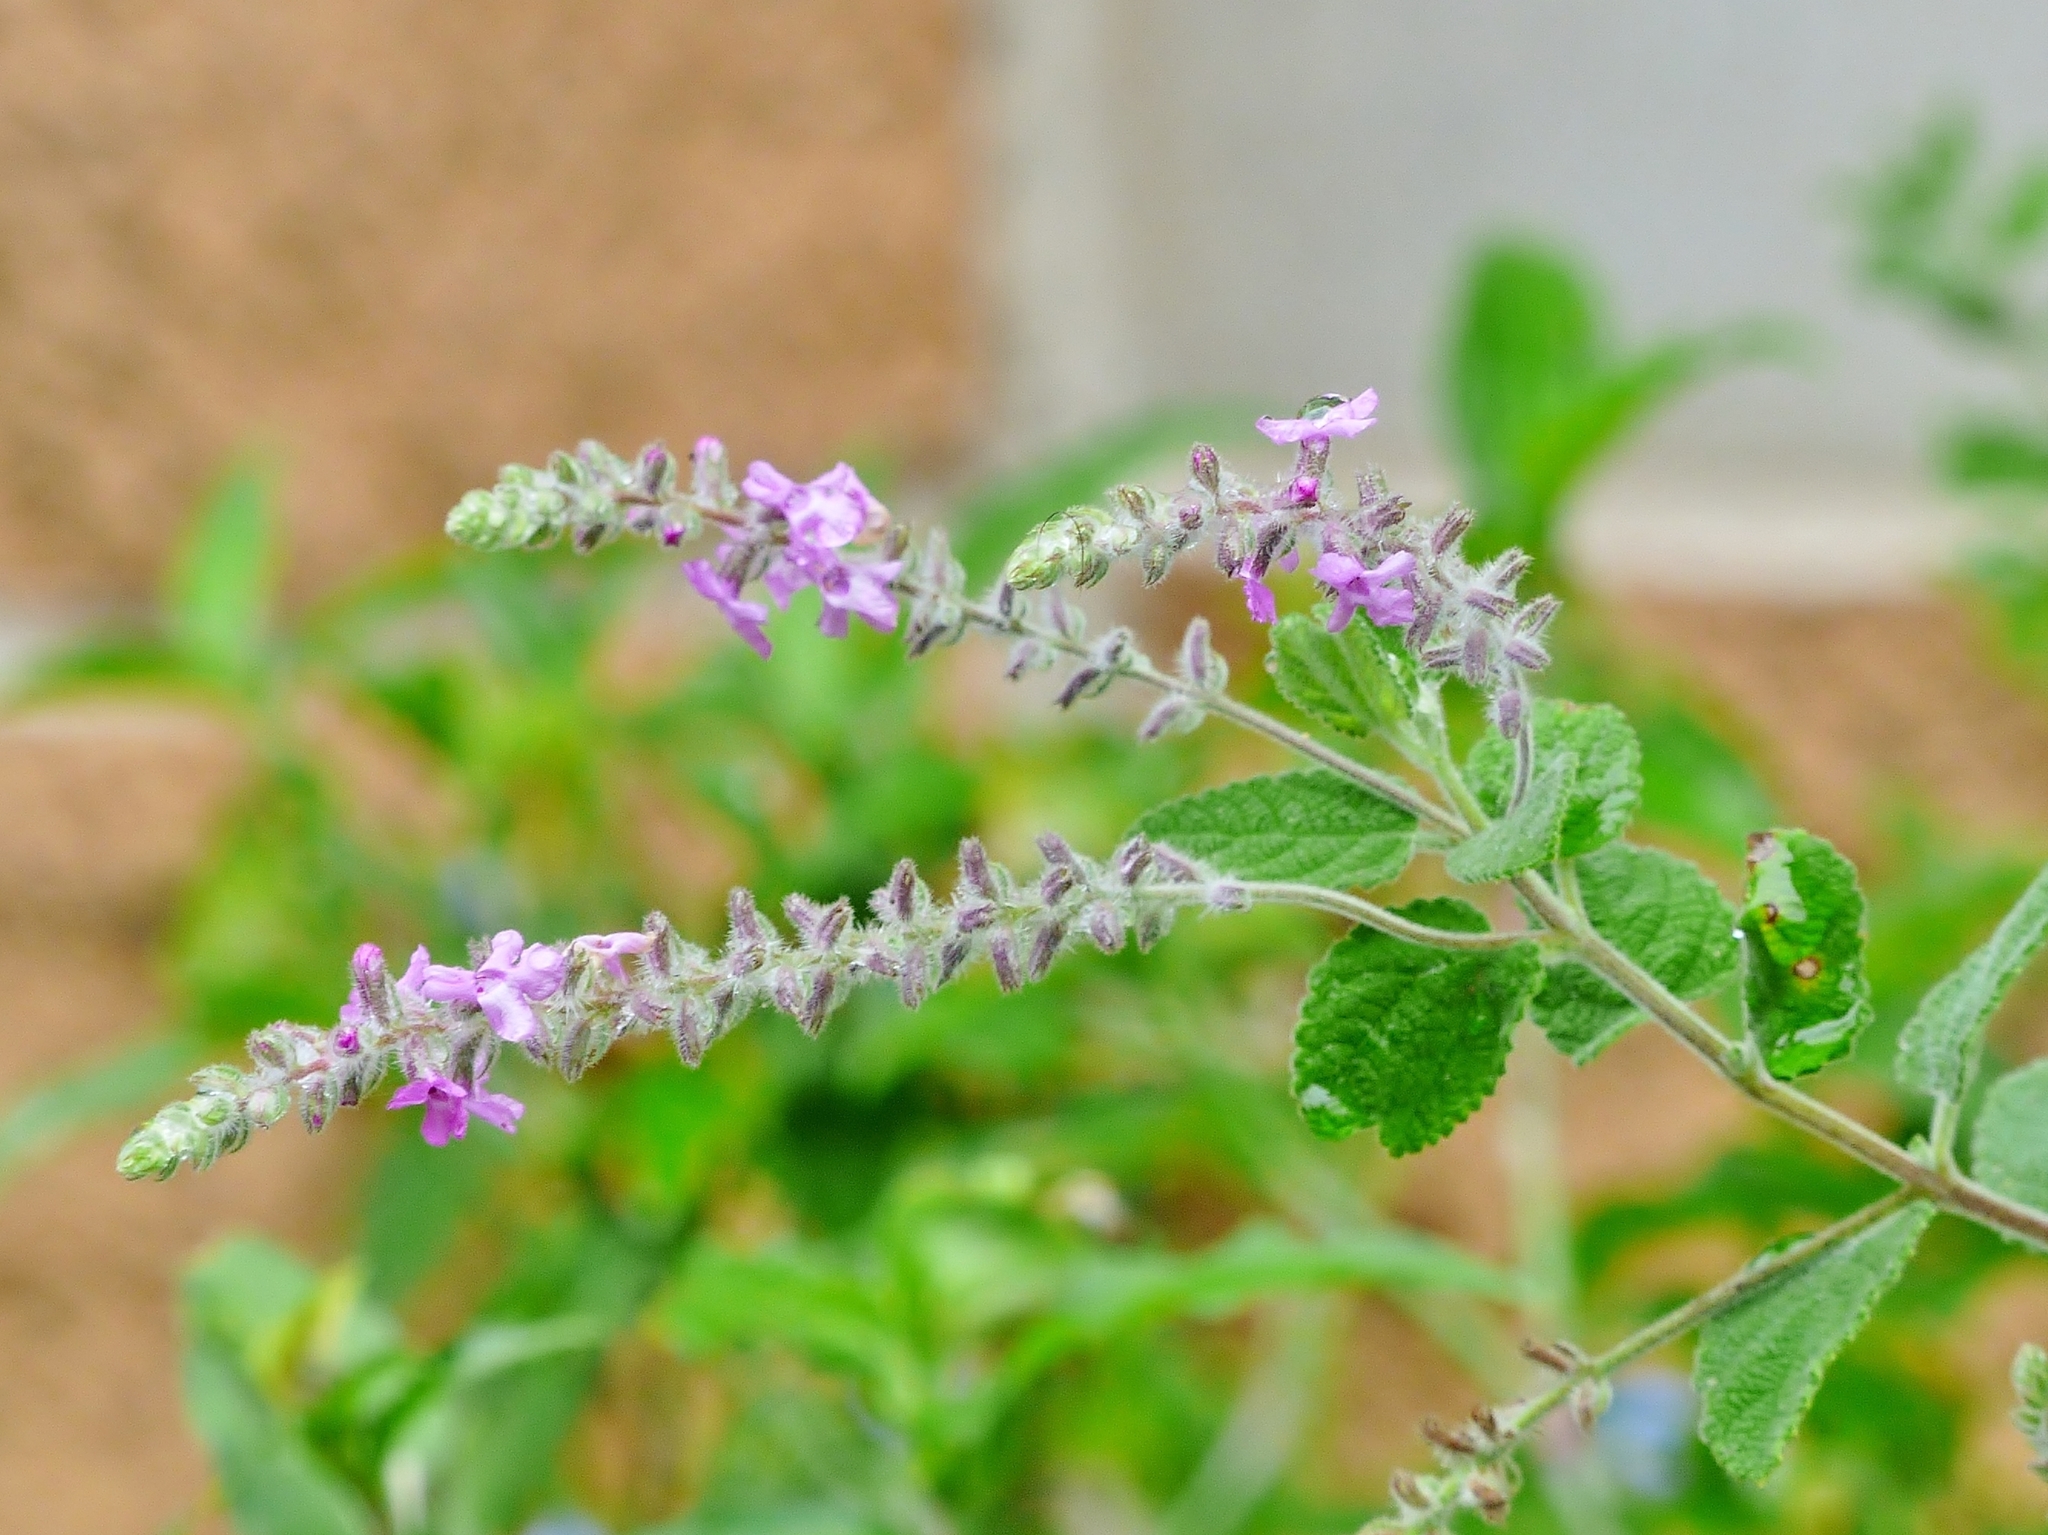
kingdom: Plantae
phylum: Tracheophyta
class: Magnoliopsida
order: Lamiales
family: Verbenaceae
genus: Aloysia
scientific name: Aloysia macrostachya
